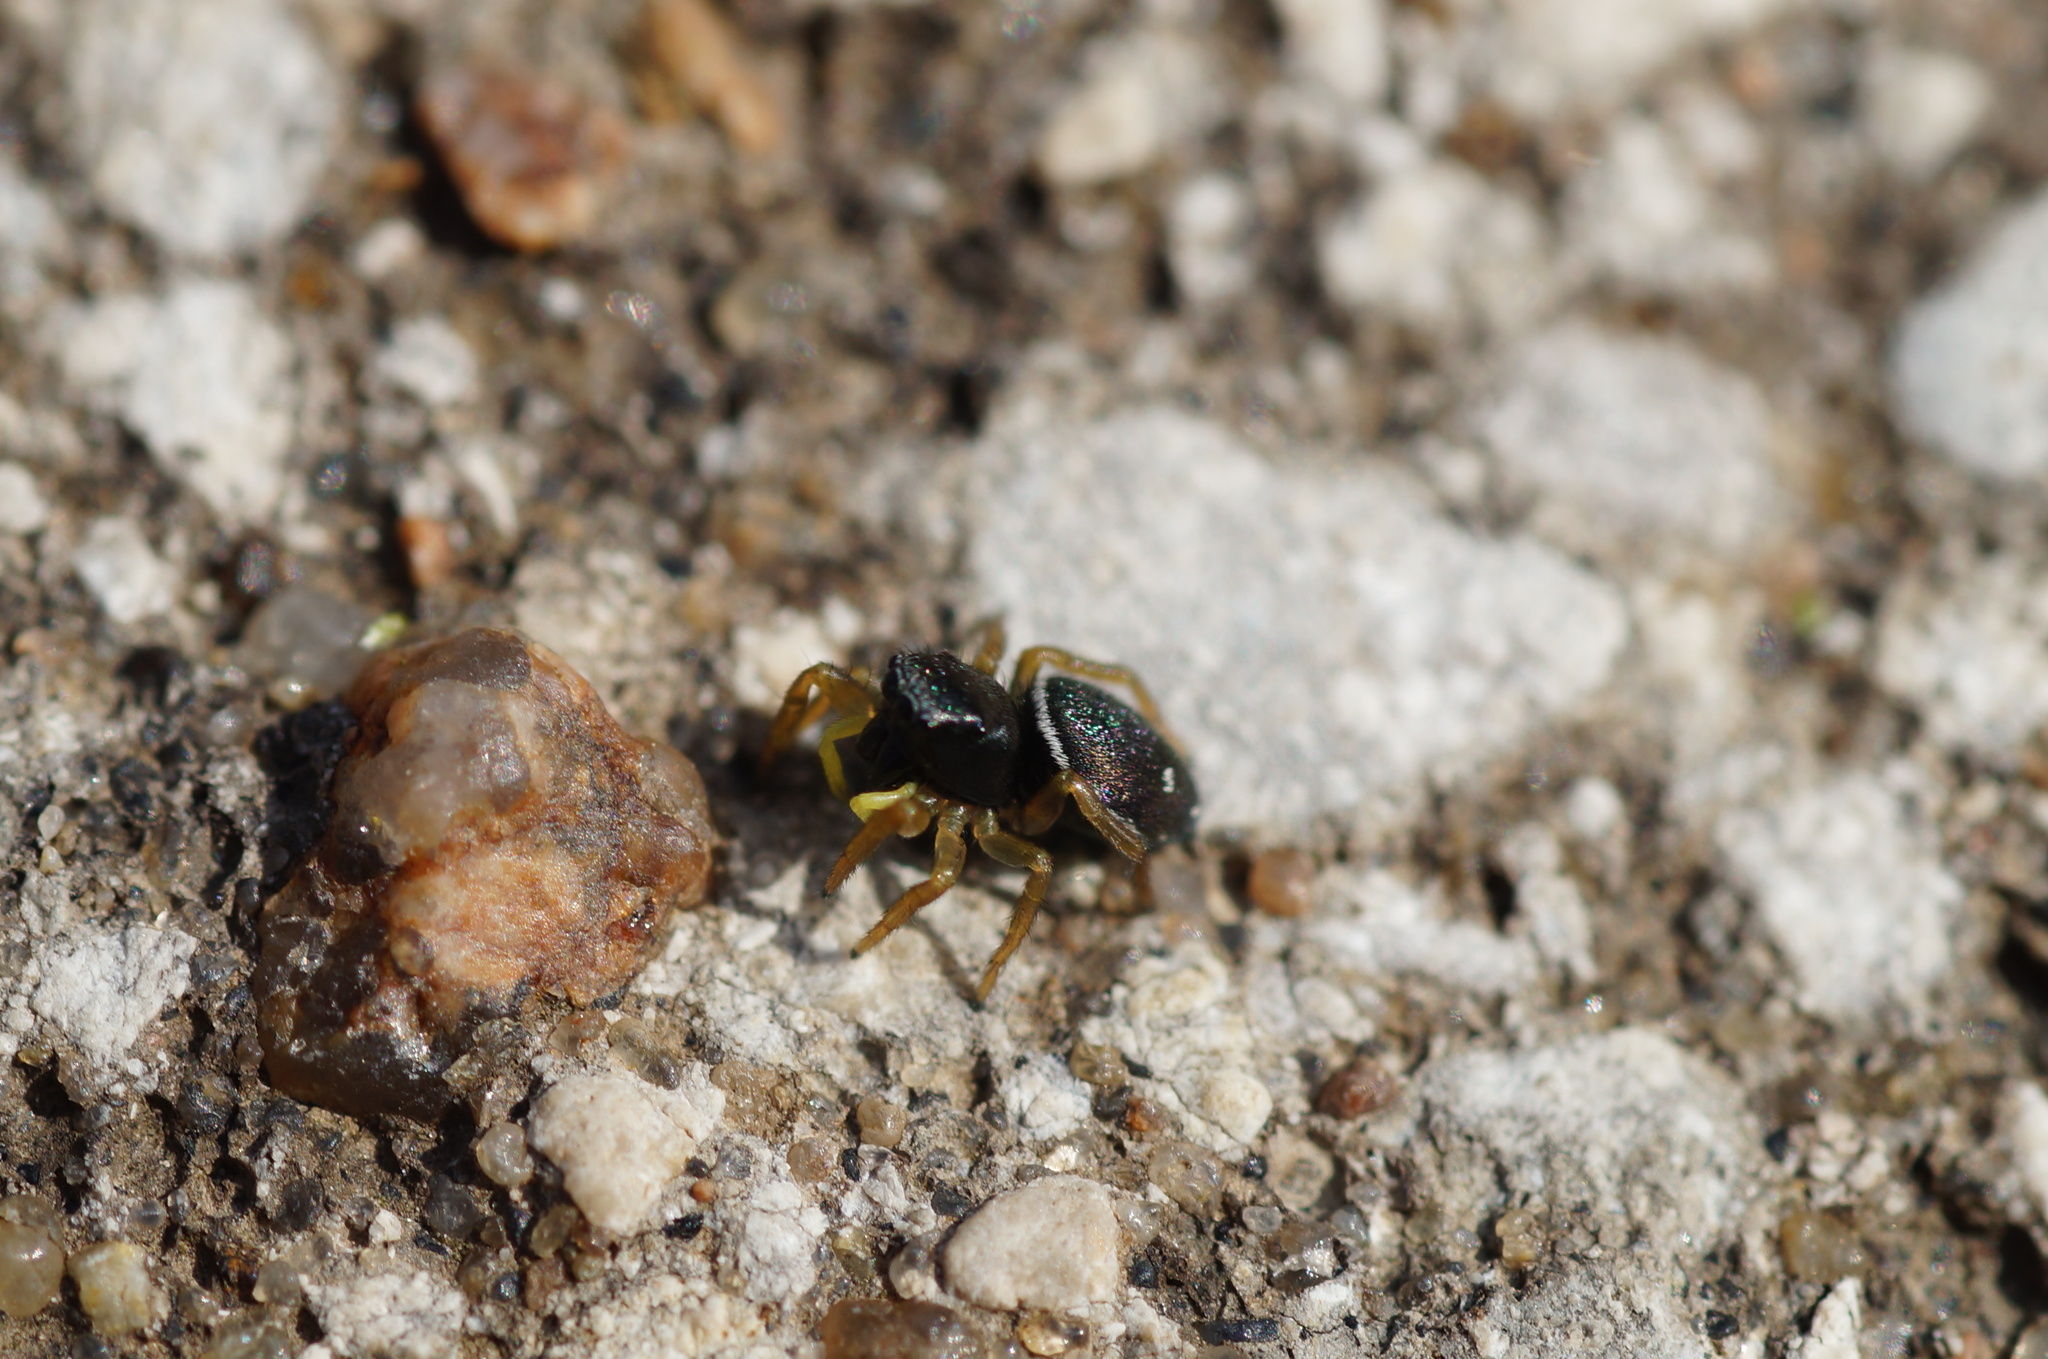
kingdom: Animalia
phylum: Arthropoda
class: Arachnida
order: Araneae
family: Salticidae
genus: Heliophanus
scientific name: Heliophanus
